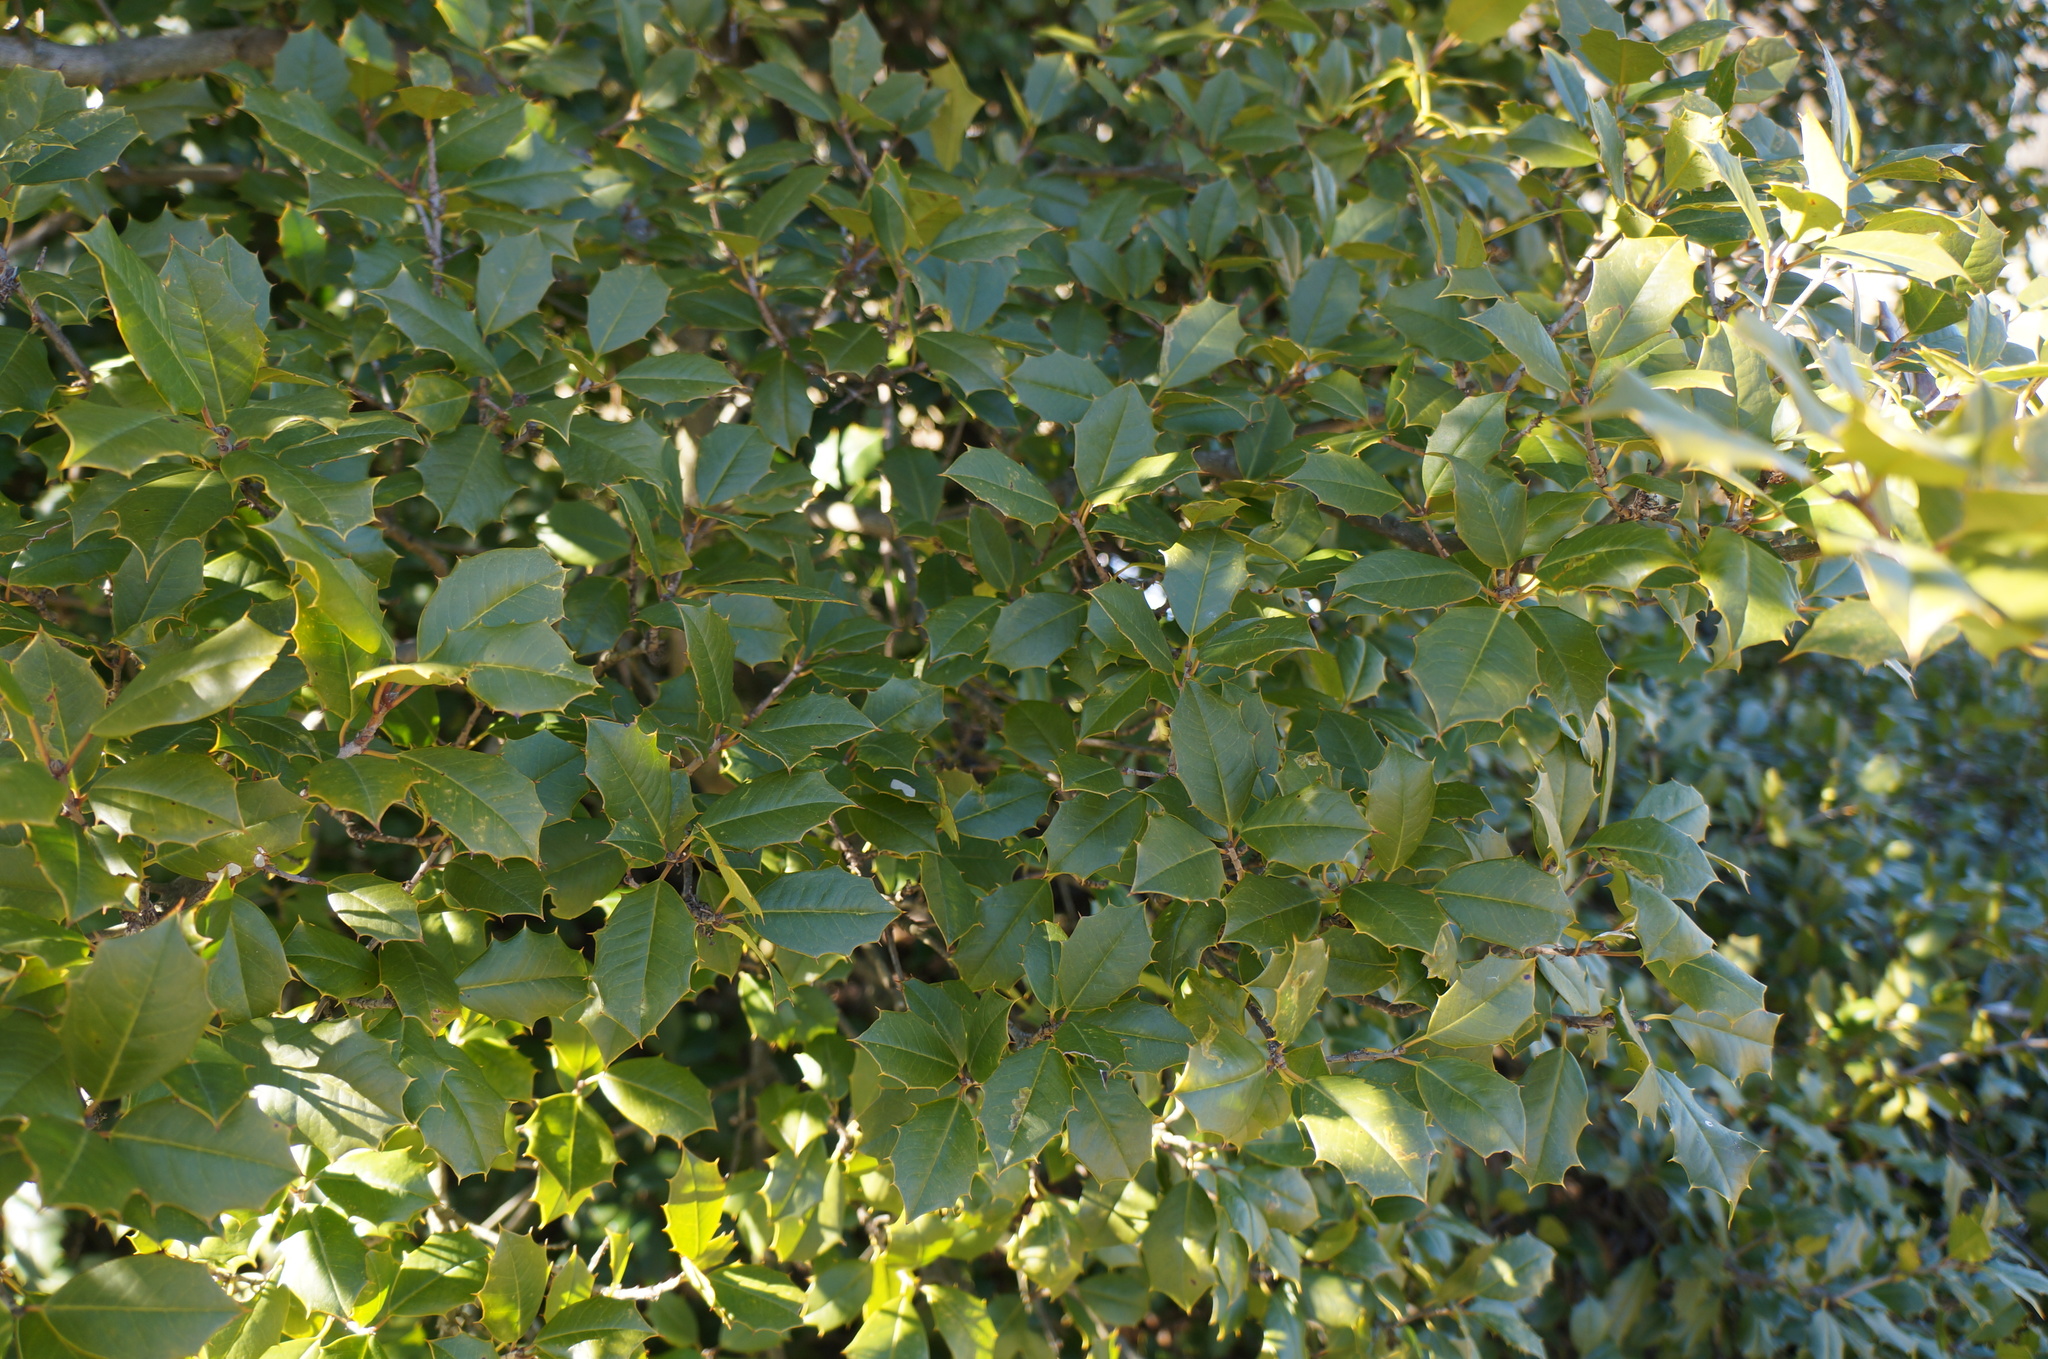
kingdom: Plantae
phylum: Tracheophyta
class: Magnoliopsida
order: Aquifoliales
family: Aquifoliaceae
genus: Ilex
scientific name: Ilex opaca
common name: American holly
